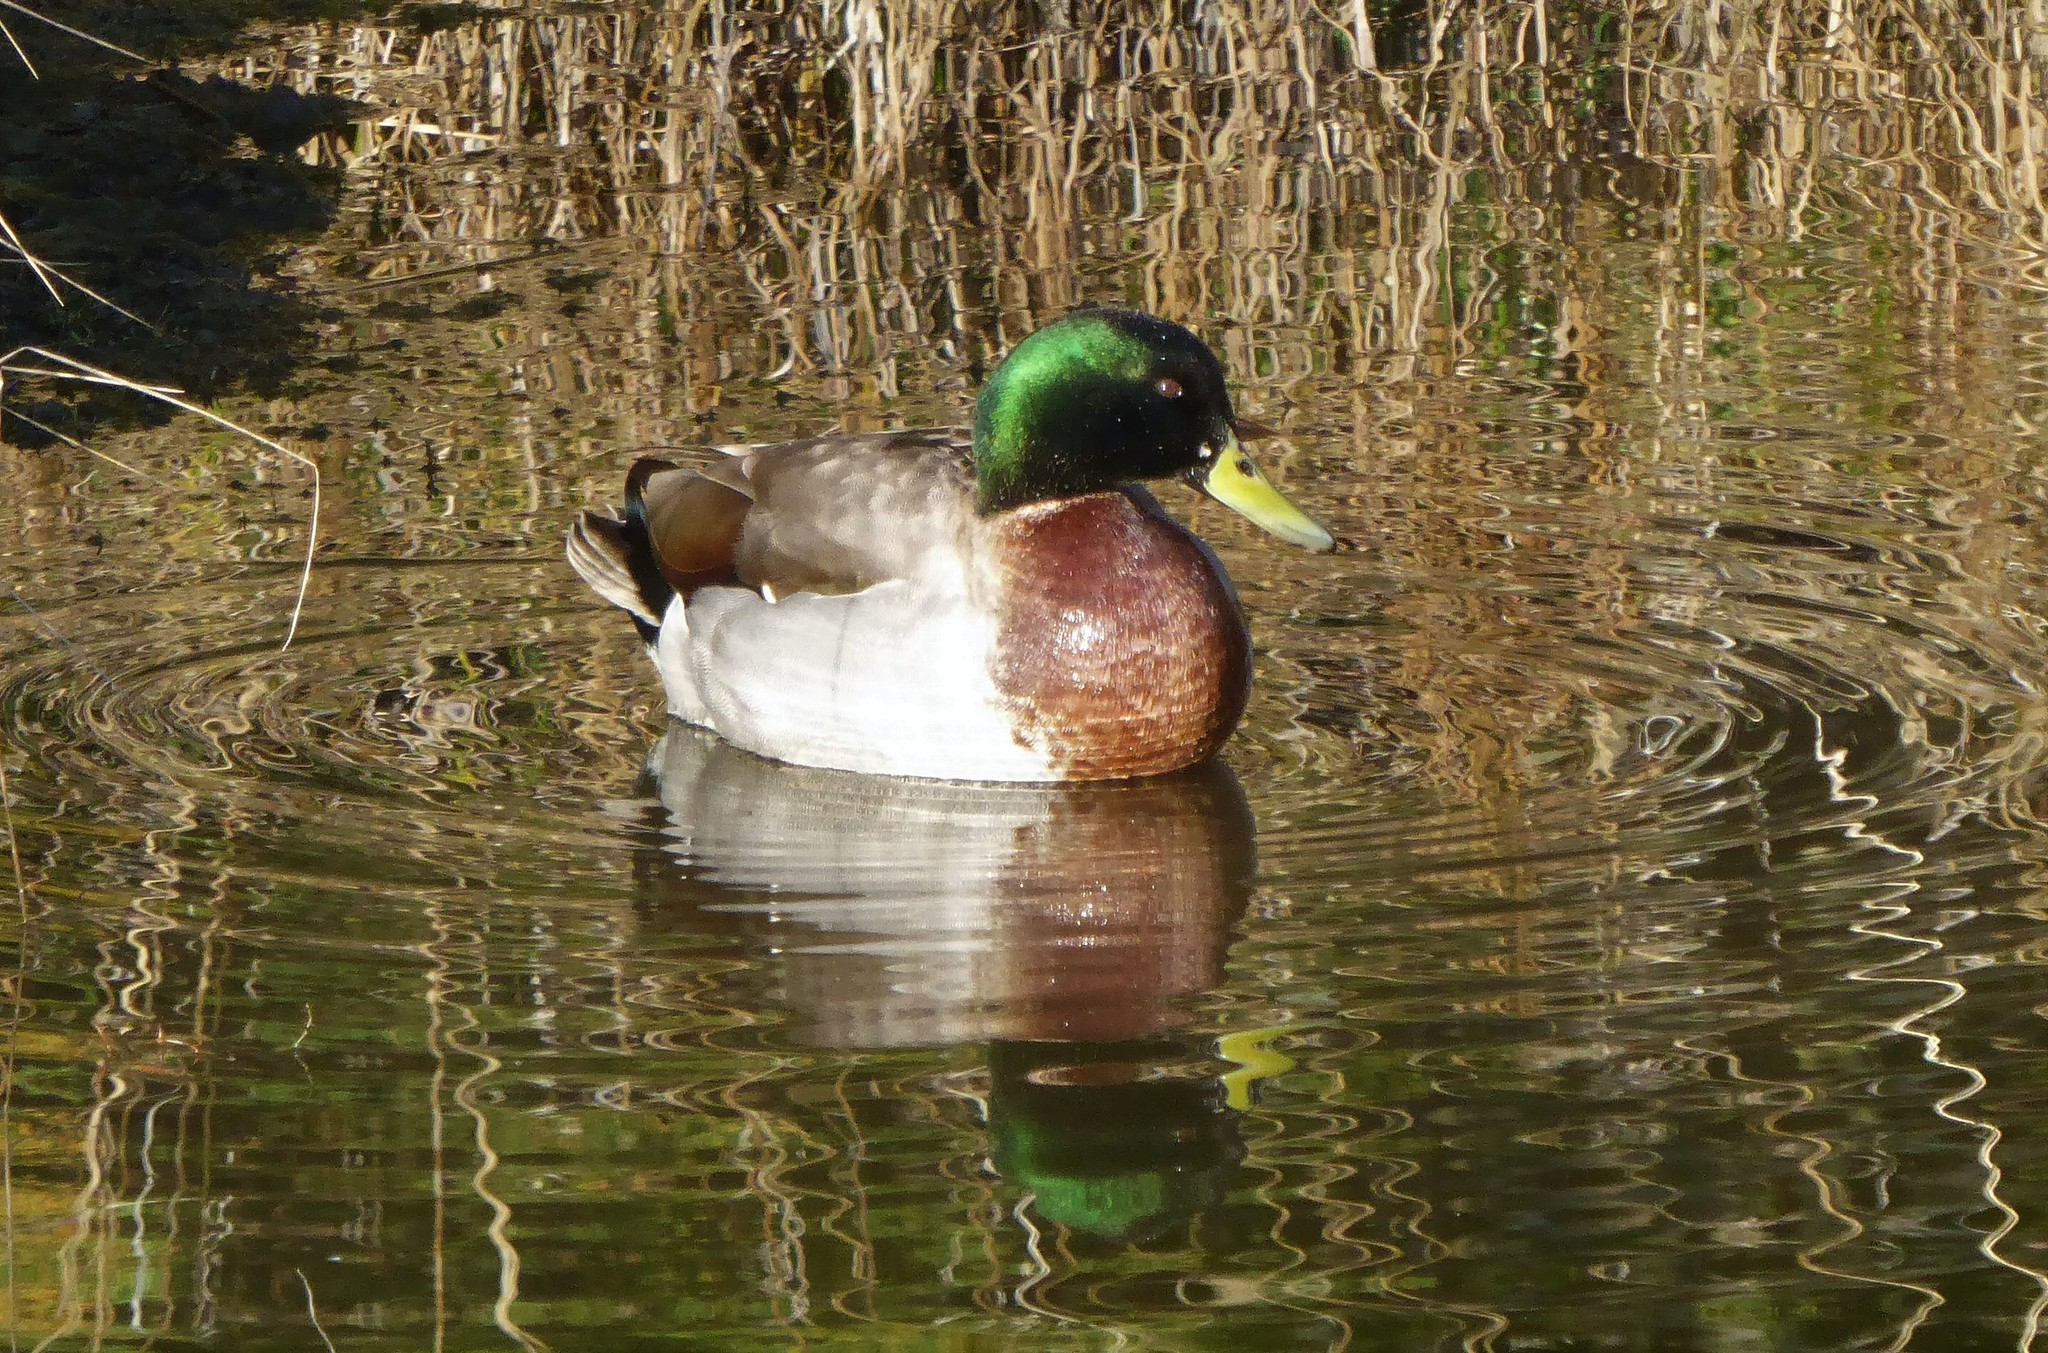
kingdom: Animalia
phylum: Chordata
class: Aves
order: Anseriformes
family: Anatidae
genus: Anas
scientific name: Anas platyrhynchos
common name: Mallard
